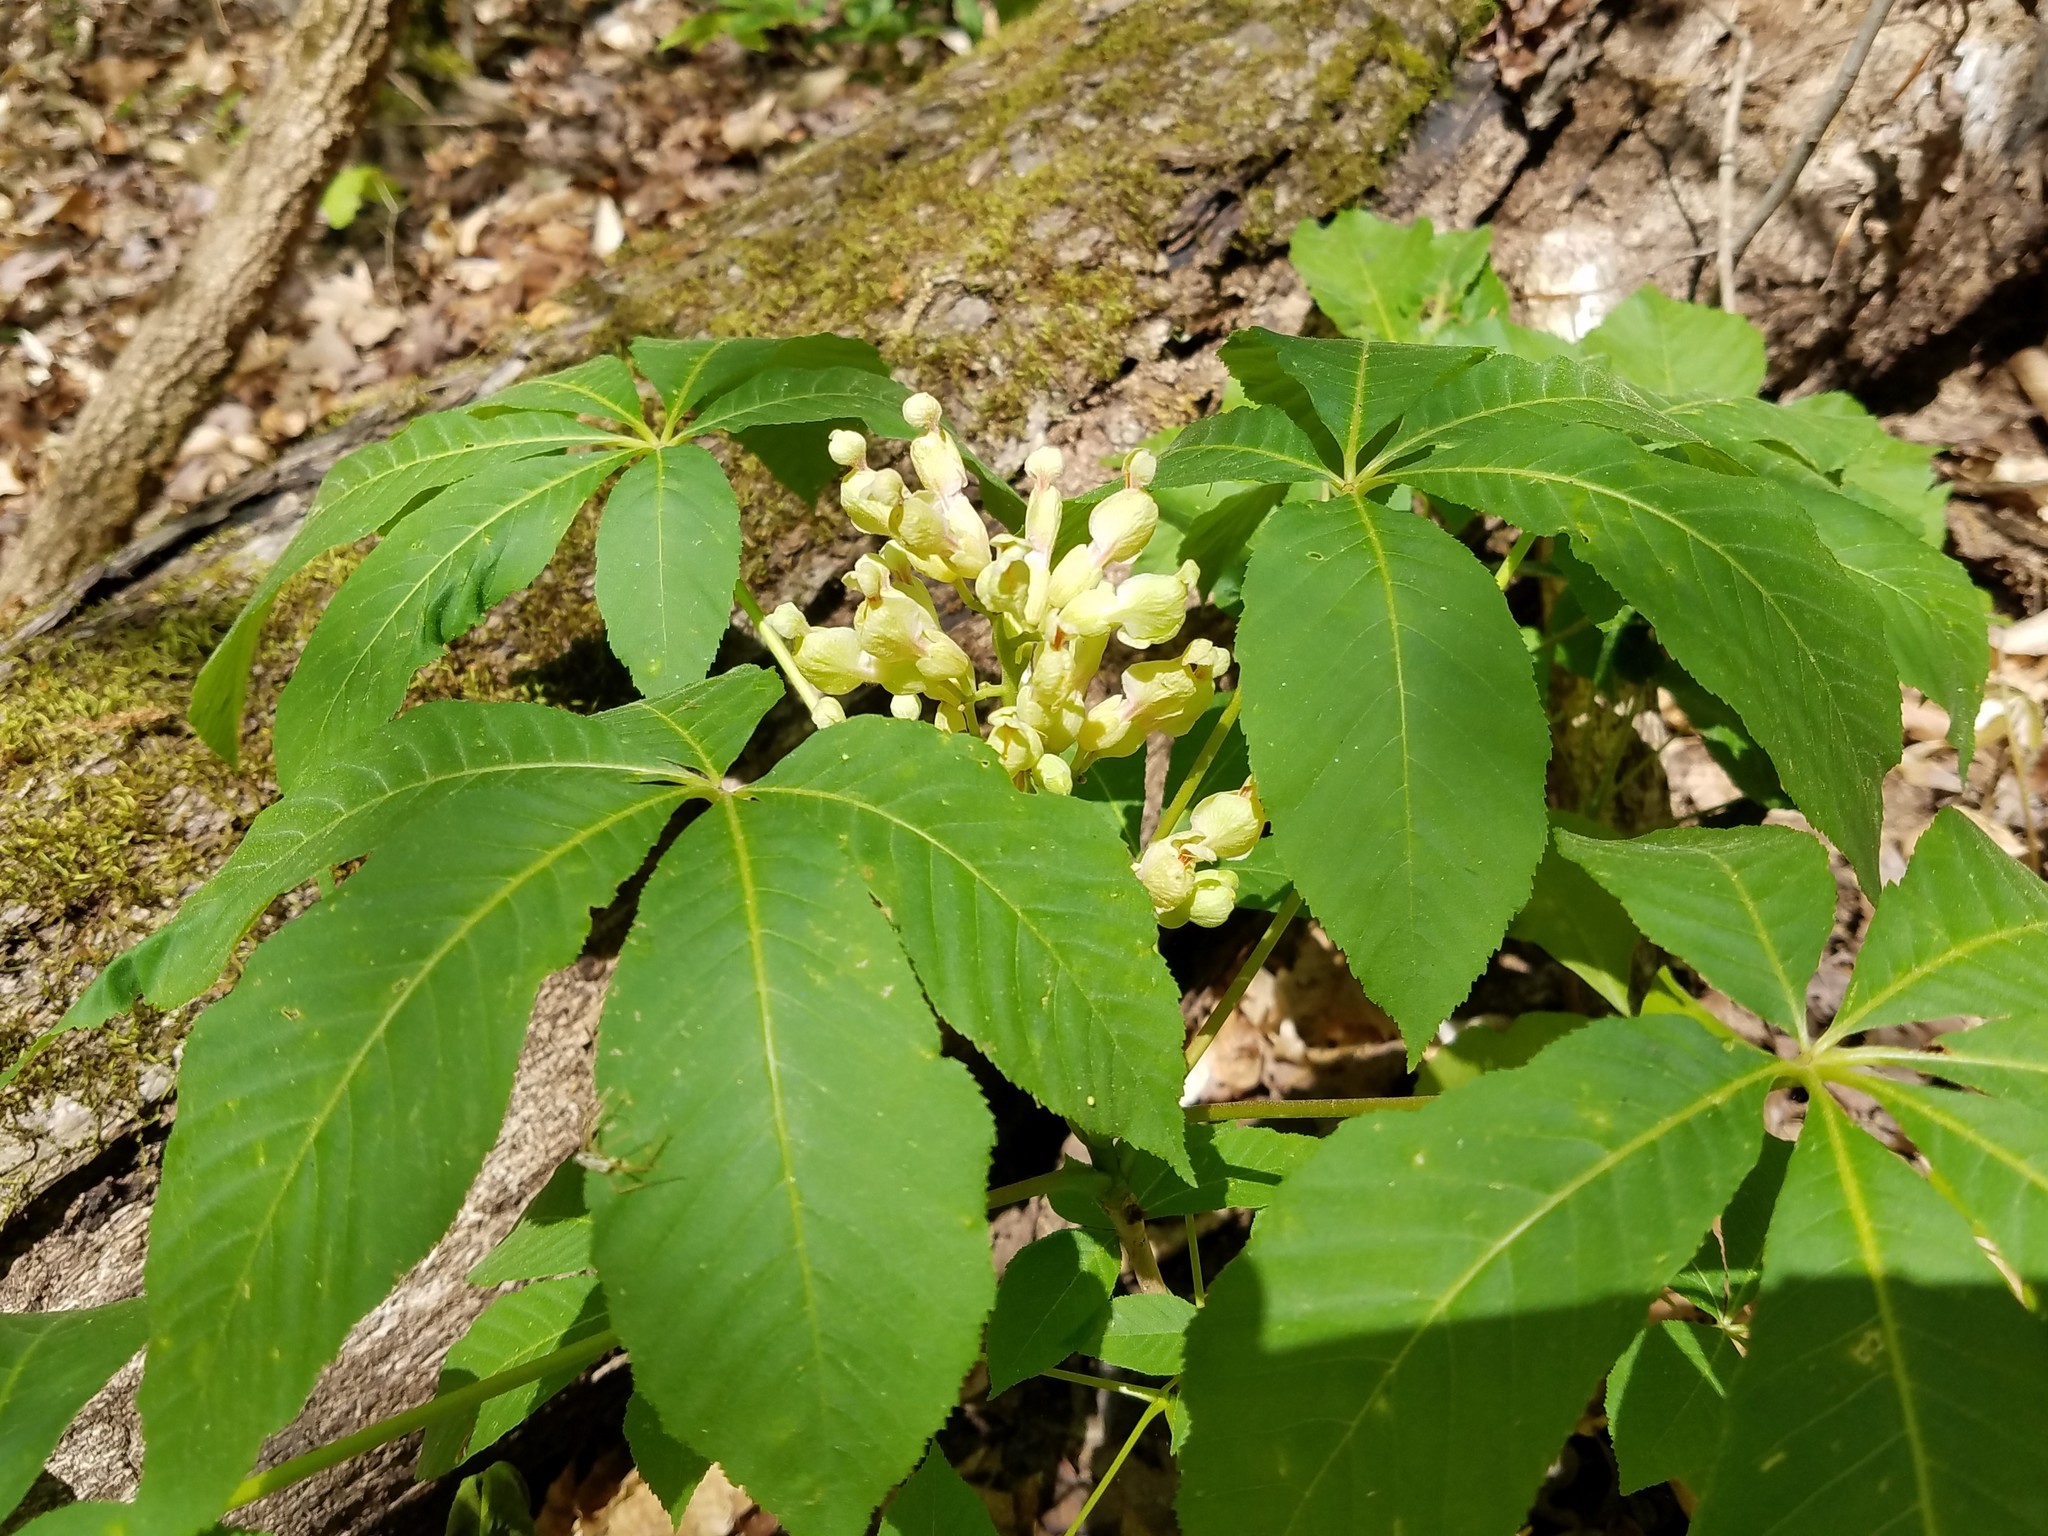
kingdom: Plantae
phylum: Tracheophyta
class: Magnoliopsida
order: Sapindales
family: Sapindaceae
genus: Aesculus
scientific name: Aesculus sylvatica
